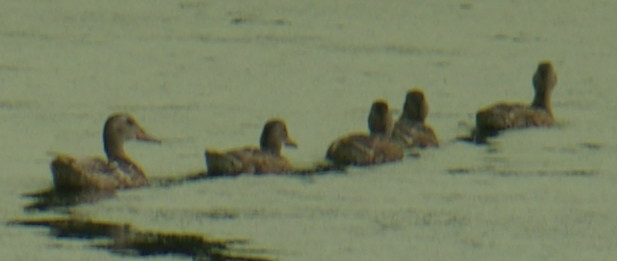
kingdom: Animalia
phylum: Chordata
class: Aves
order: Anseriformes
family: Anatidae
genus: Anas
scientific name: Anas platyrhynchos
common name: Mallard
